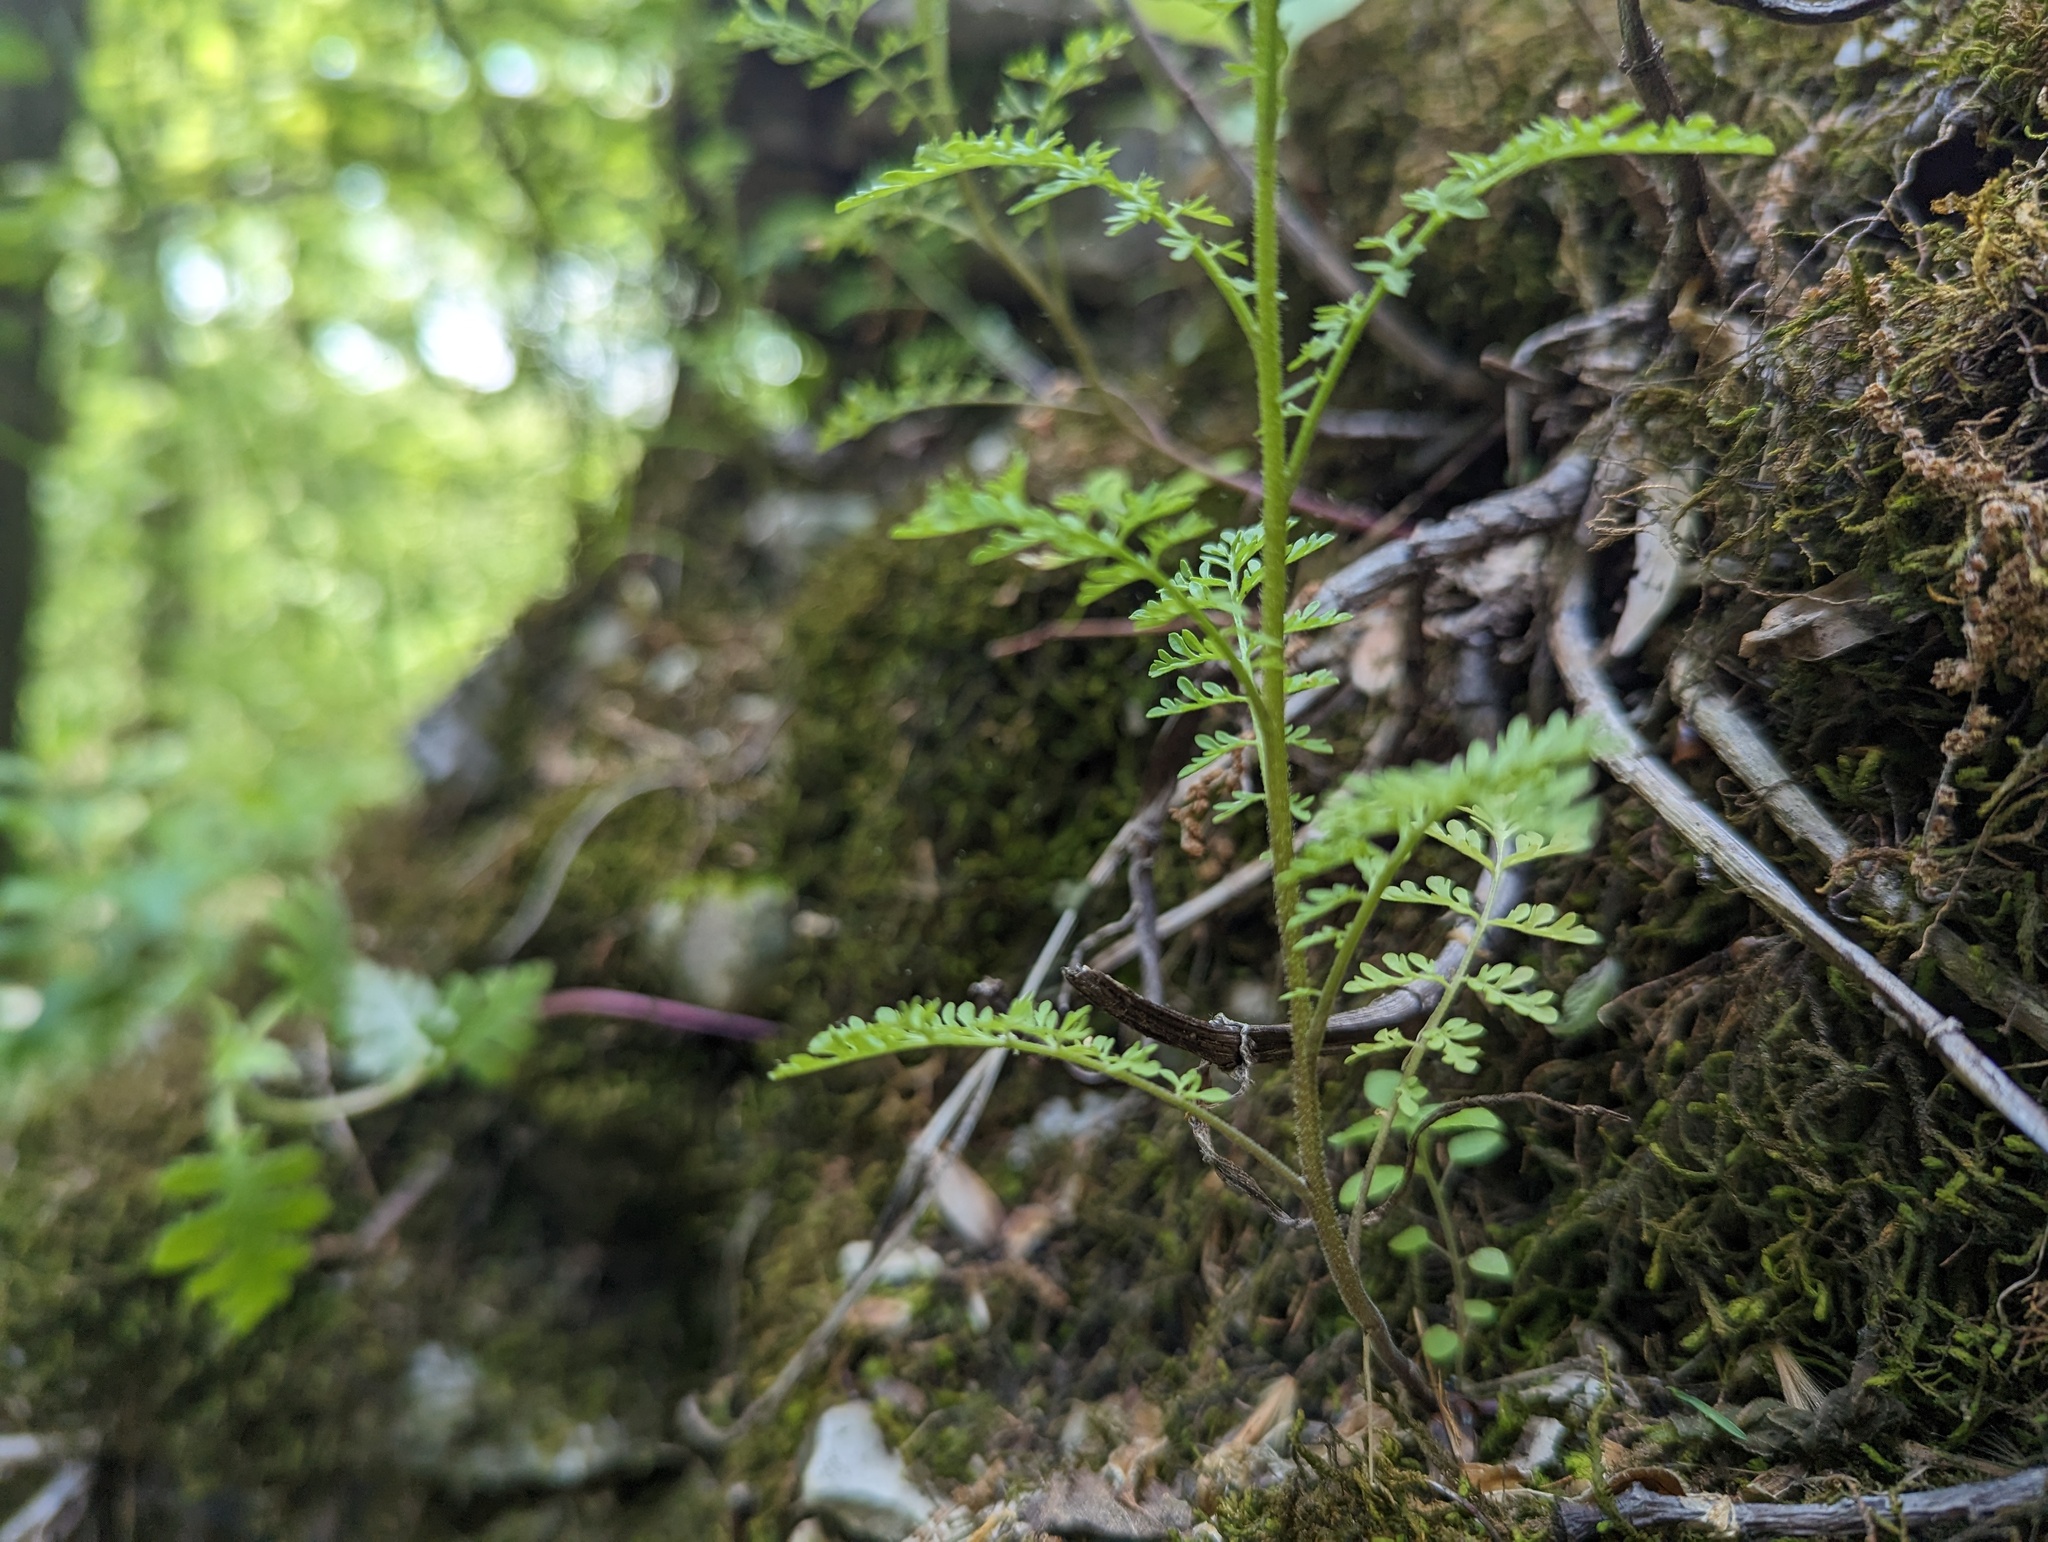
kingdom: Plantae
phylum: Tracheophyta
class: Magnoliopsida
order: Brassicales
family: Brassicaceae
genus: Descurainia
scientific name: Descurainia pinnata
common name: Western tansy mustard
